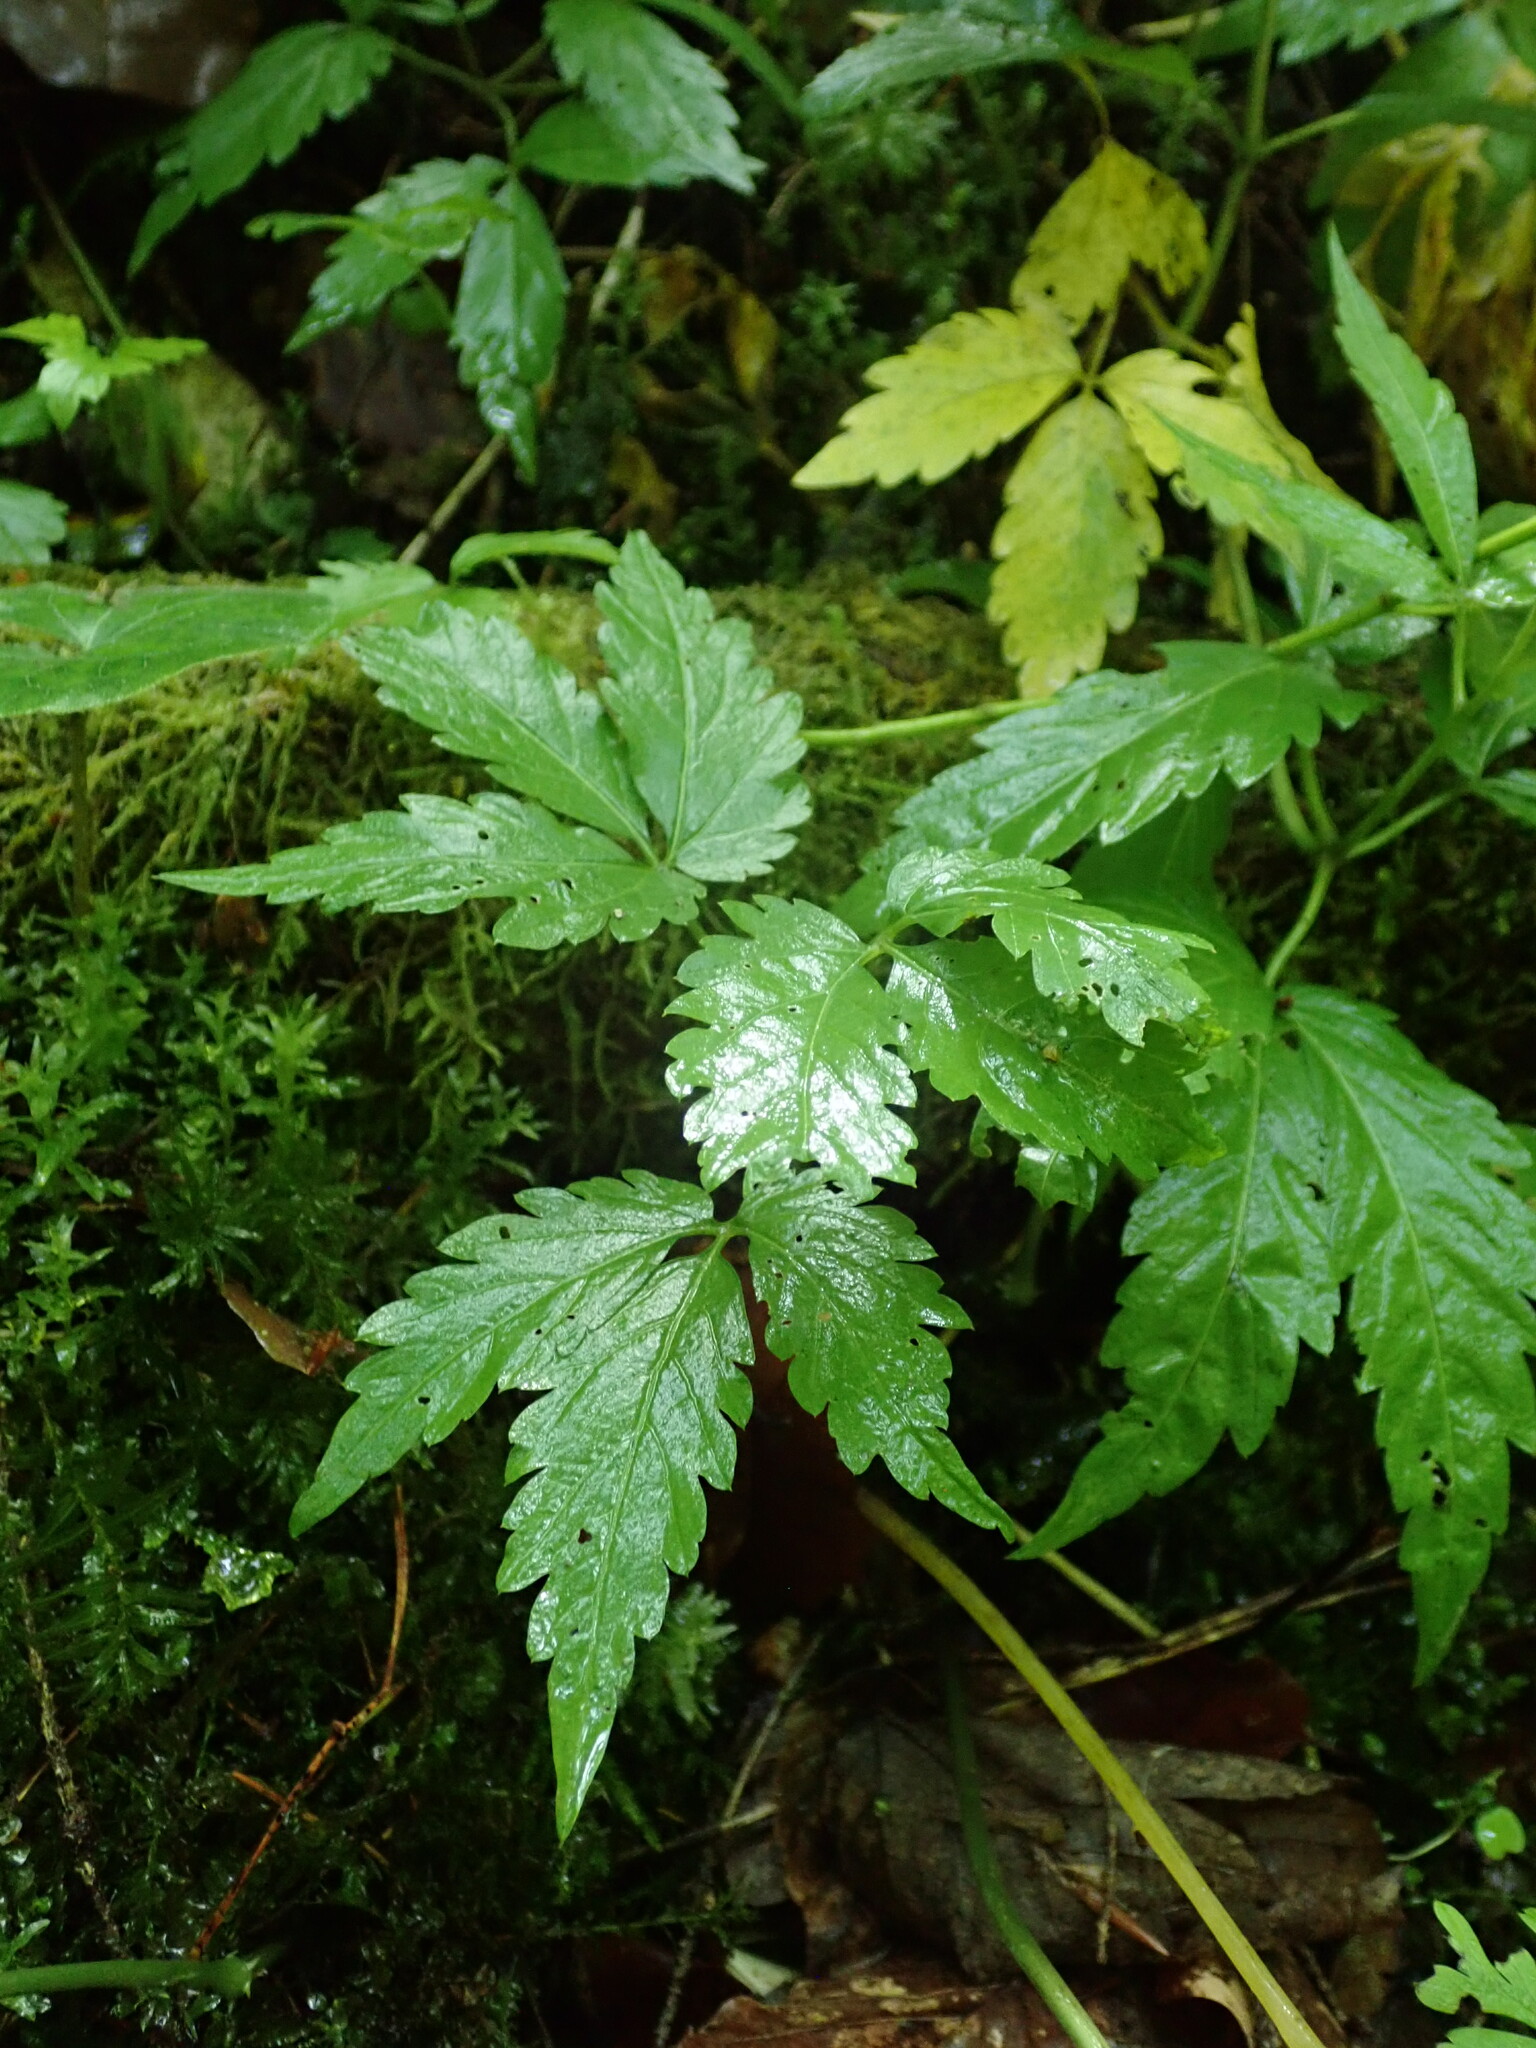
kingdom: Plantae
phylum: Tracheophyta
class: Magnoliopsida
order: Brassicales
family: Brassicaceae
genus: Cardamine
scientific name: Cardamine glanduligera
